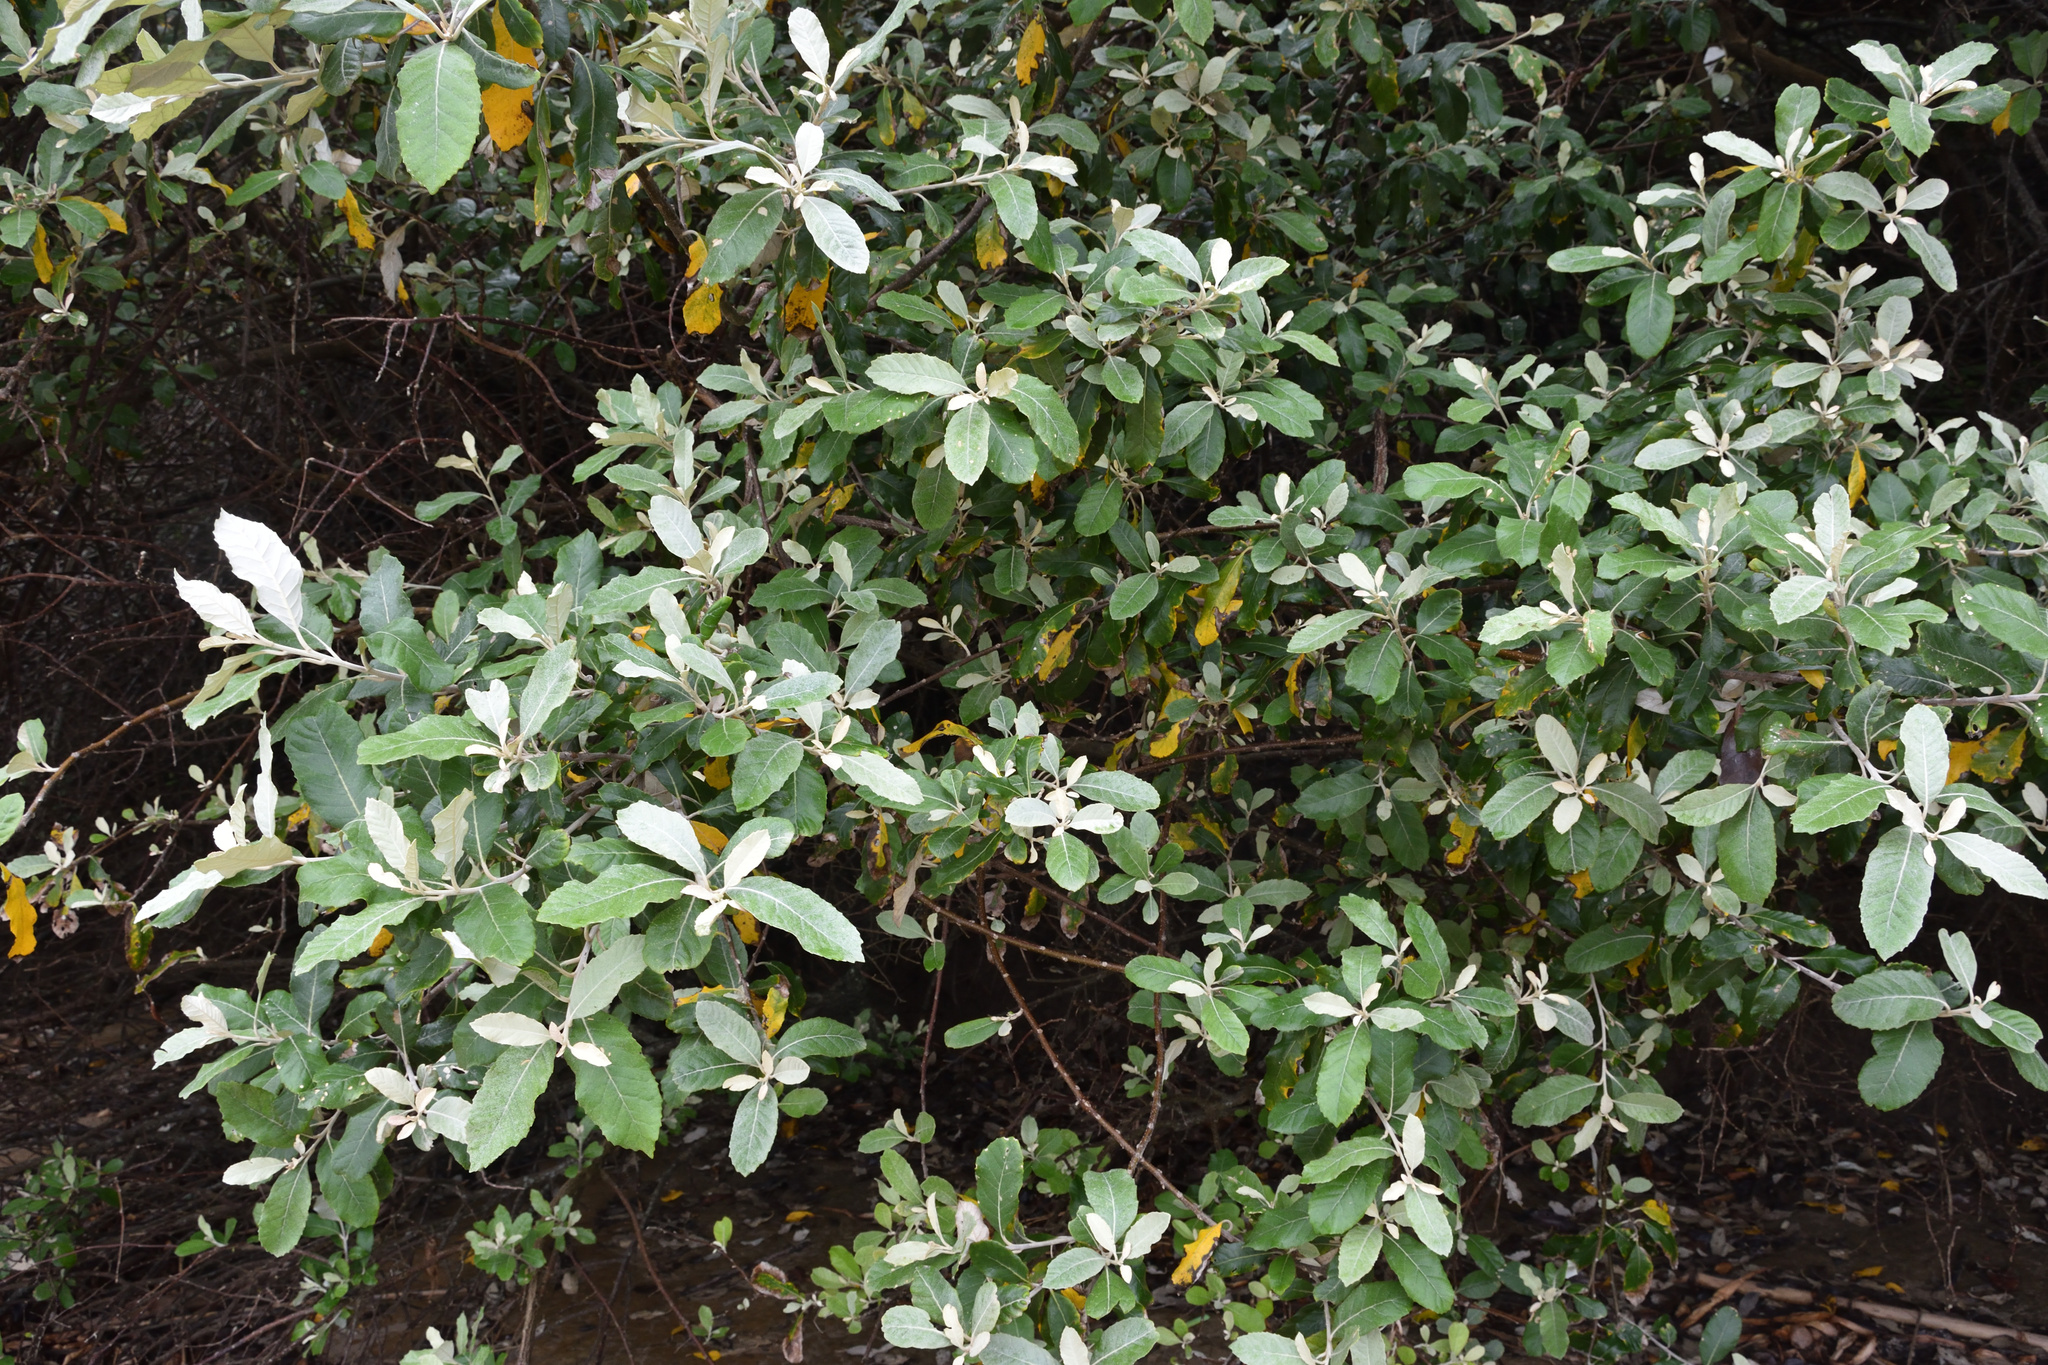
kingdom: Plantae
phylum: Tracheophyta
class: Magnoliopsida
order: Asterales
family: Asteraceae
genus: Brachylaena
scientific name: Brachylaena discolor
